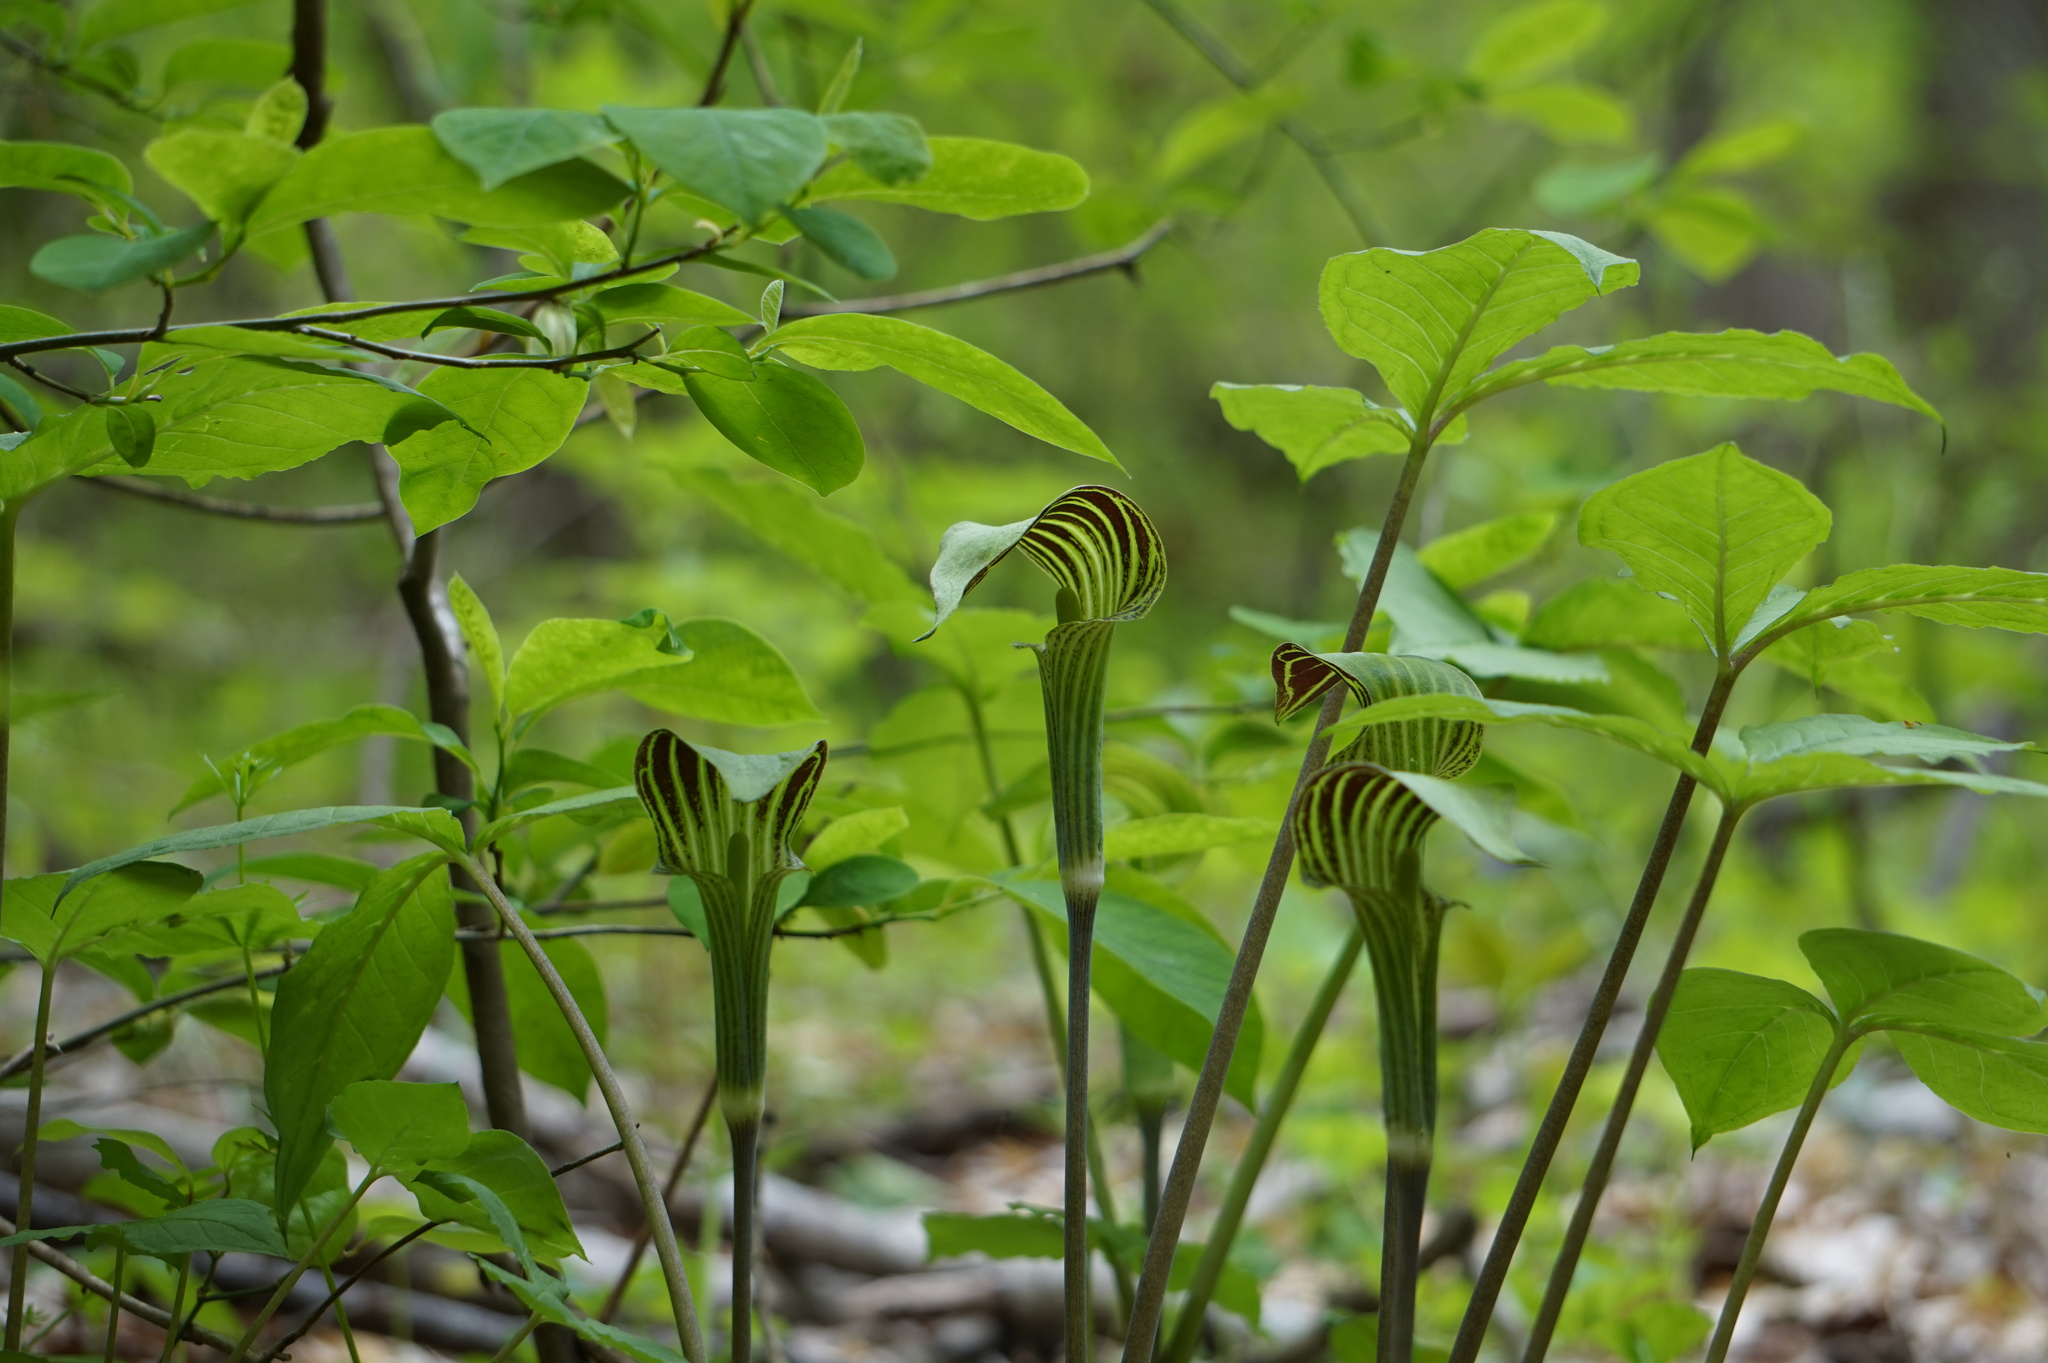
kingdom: Plantae
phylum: Tracheophyta
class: Liliopsida
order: Alismatales
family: Araceae
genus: Arisaema
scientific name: Arisaema triphyllum
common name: Jack-in-the-pulpit
